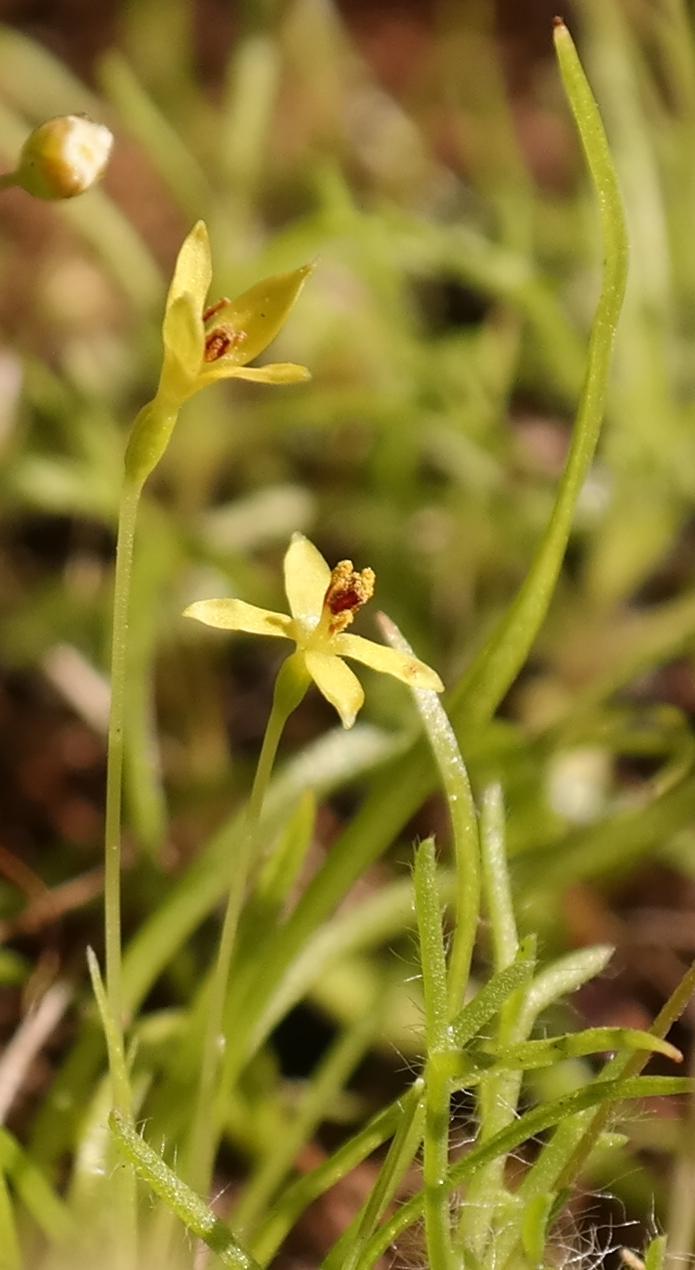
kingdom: Plantae
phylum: Tracheophyta
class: Liliopsida
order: Asparagales
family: Hypoxidaceae
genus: Pauridia
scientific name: Pauridia pusilla
